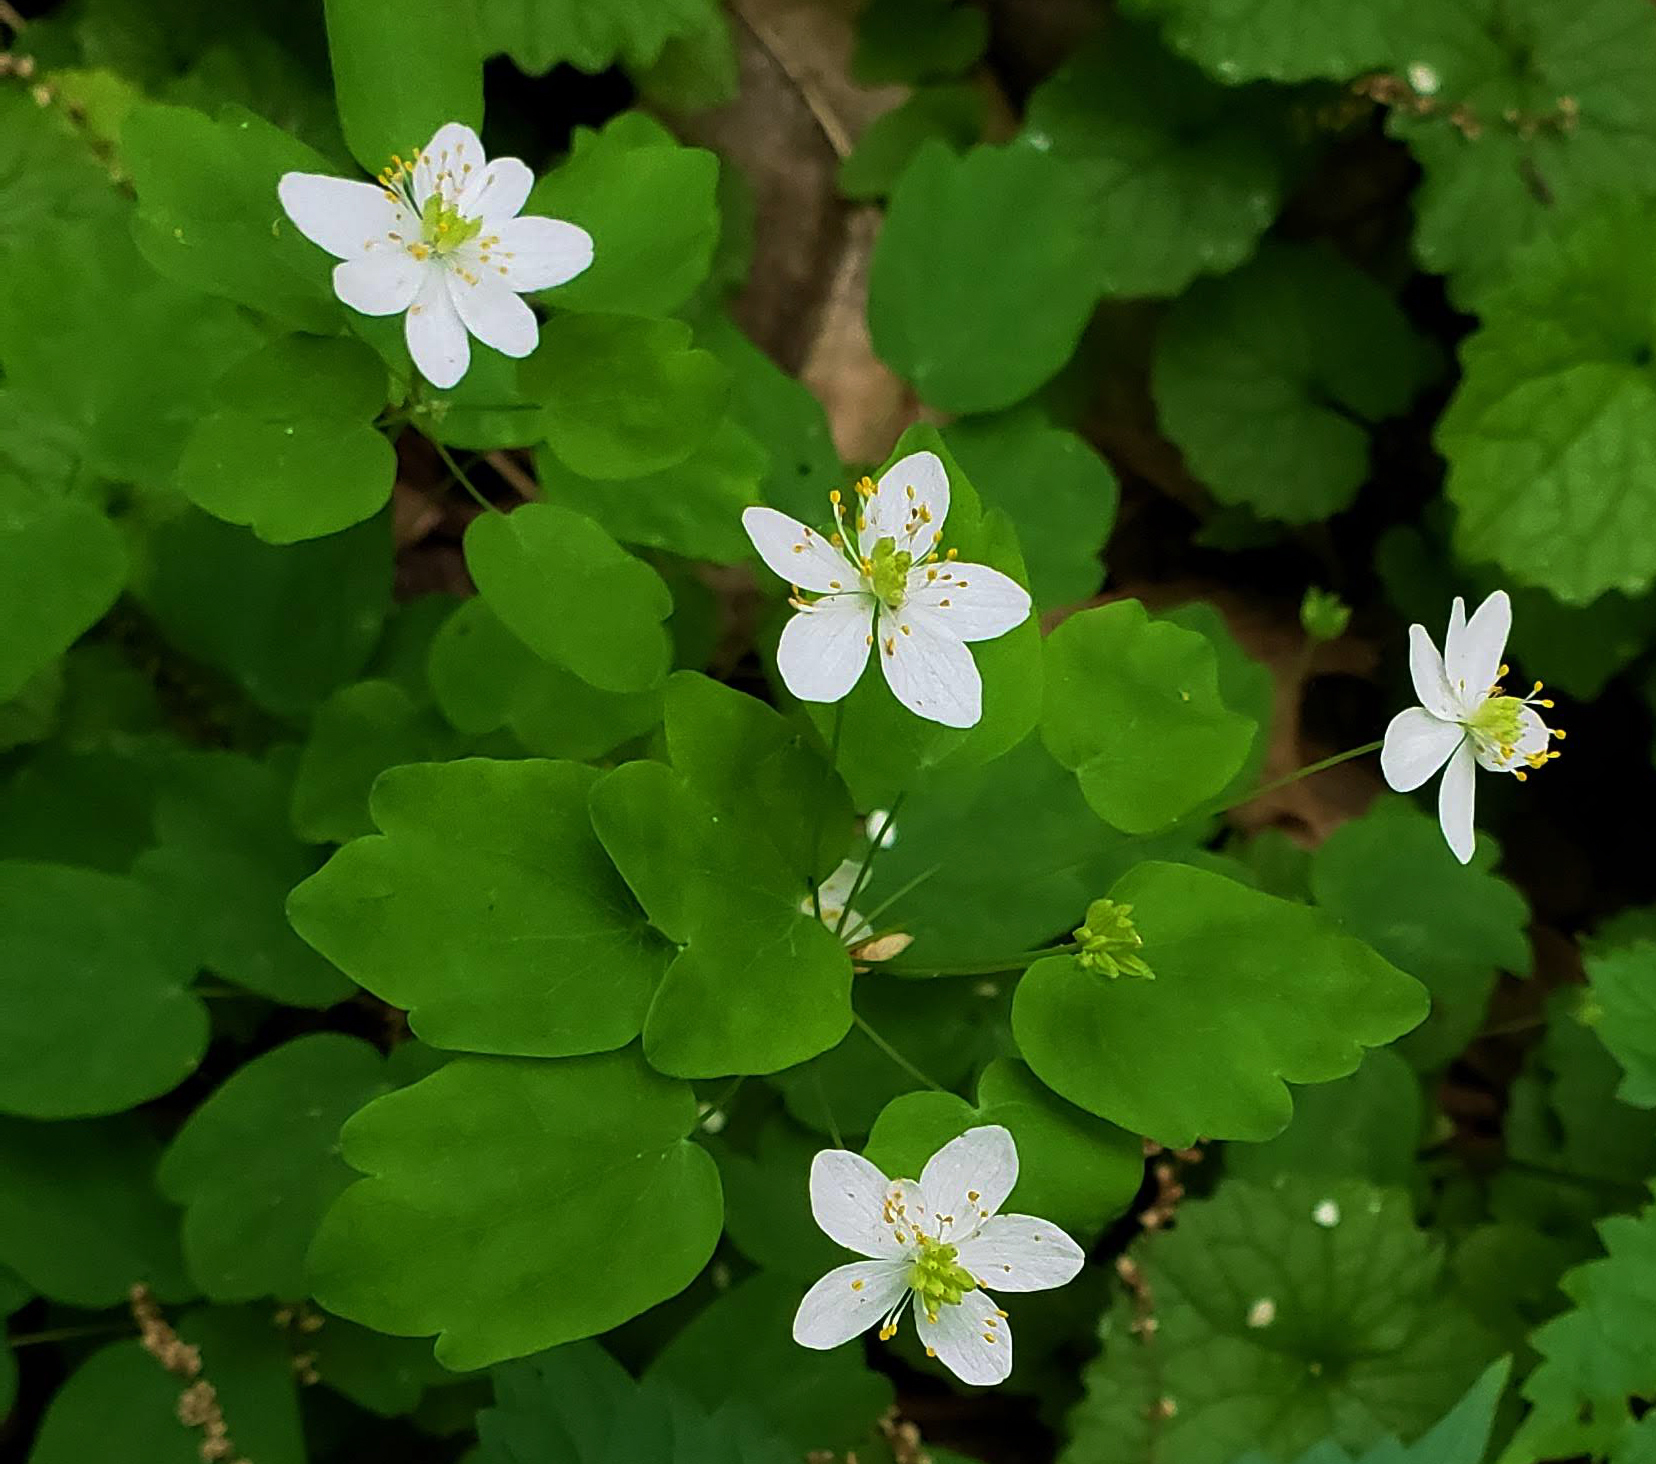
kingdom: Plantae
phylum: Tracheophyta
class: Magnoliopsida
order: Ranunculales
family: Ranunculaceae
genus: Thalictrum
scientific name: Thalictrum thalictroides
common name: Rue-anemone
